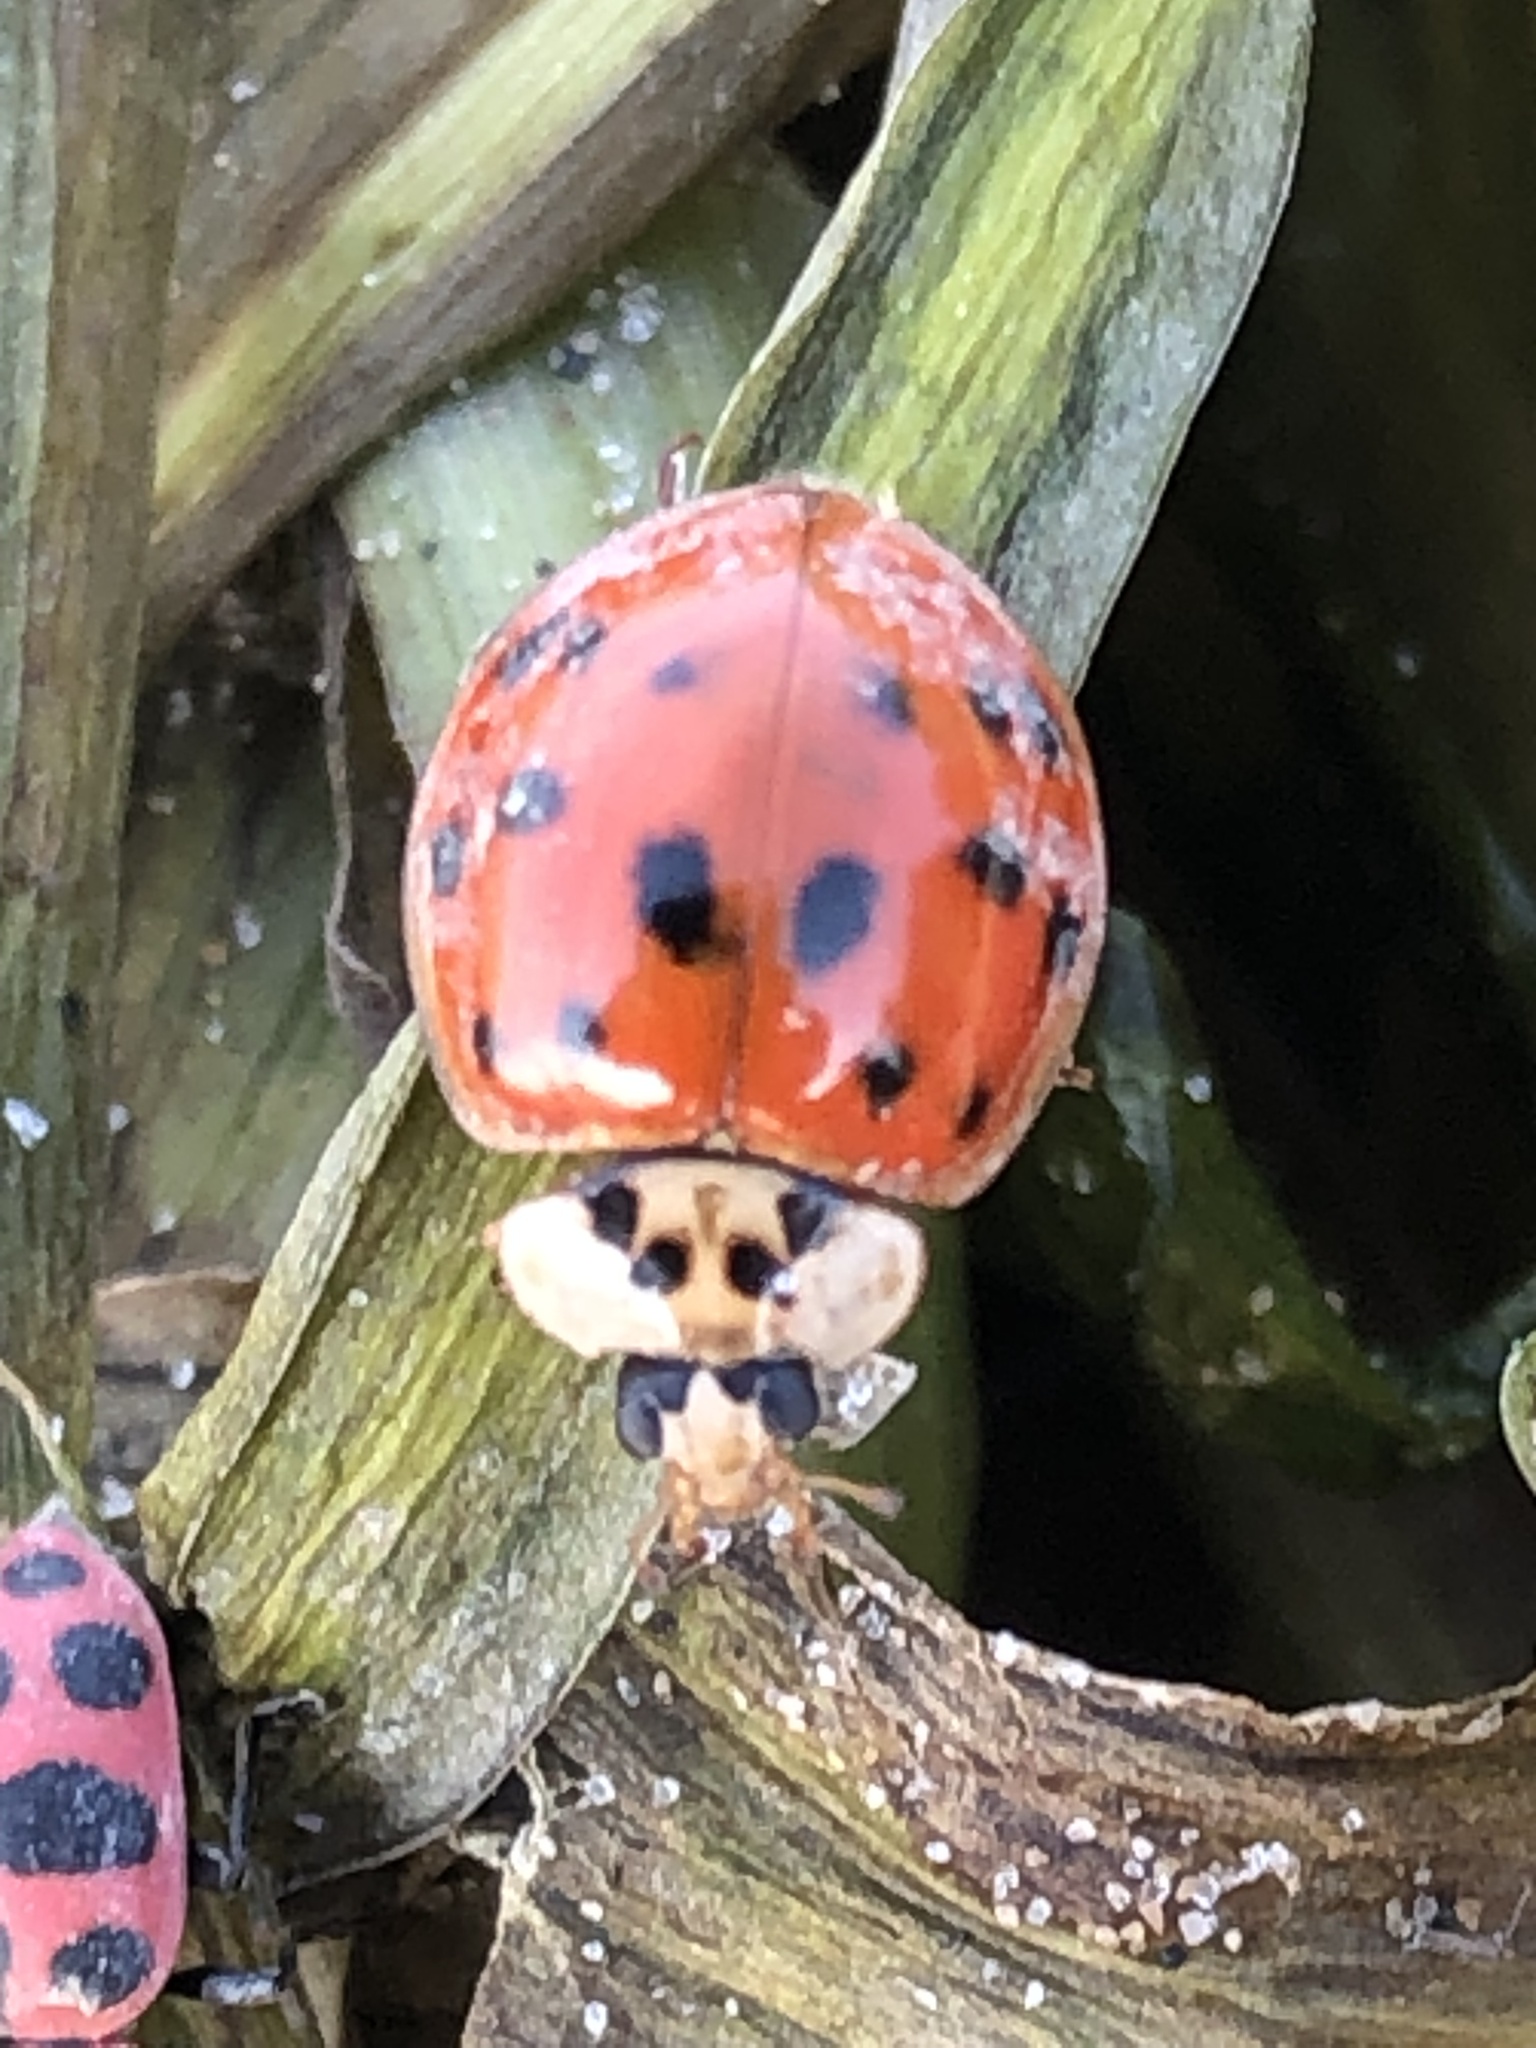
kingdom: Animalia
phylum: Arthropoda
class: Insecta
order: Coleoptera
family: Coccinellidae
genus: Harmonia
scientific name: Harmonia axyridis
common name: Harlequin ladybird
